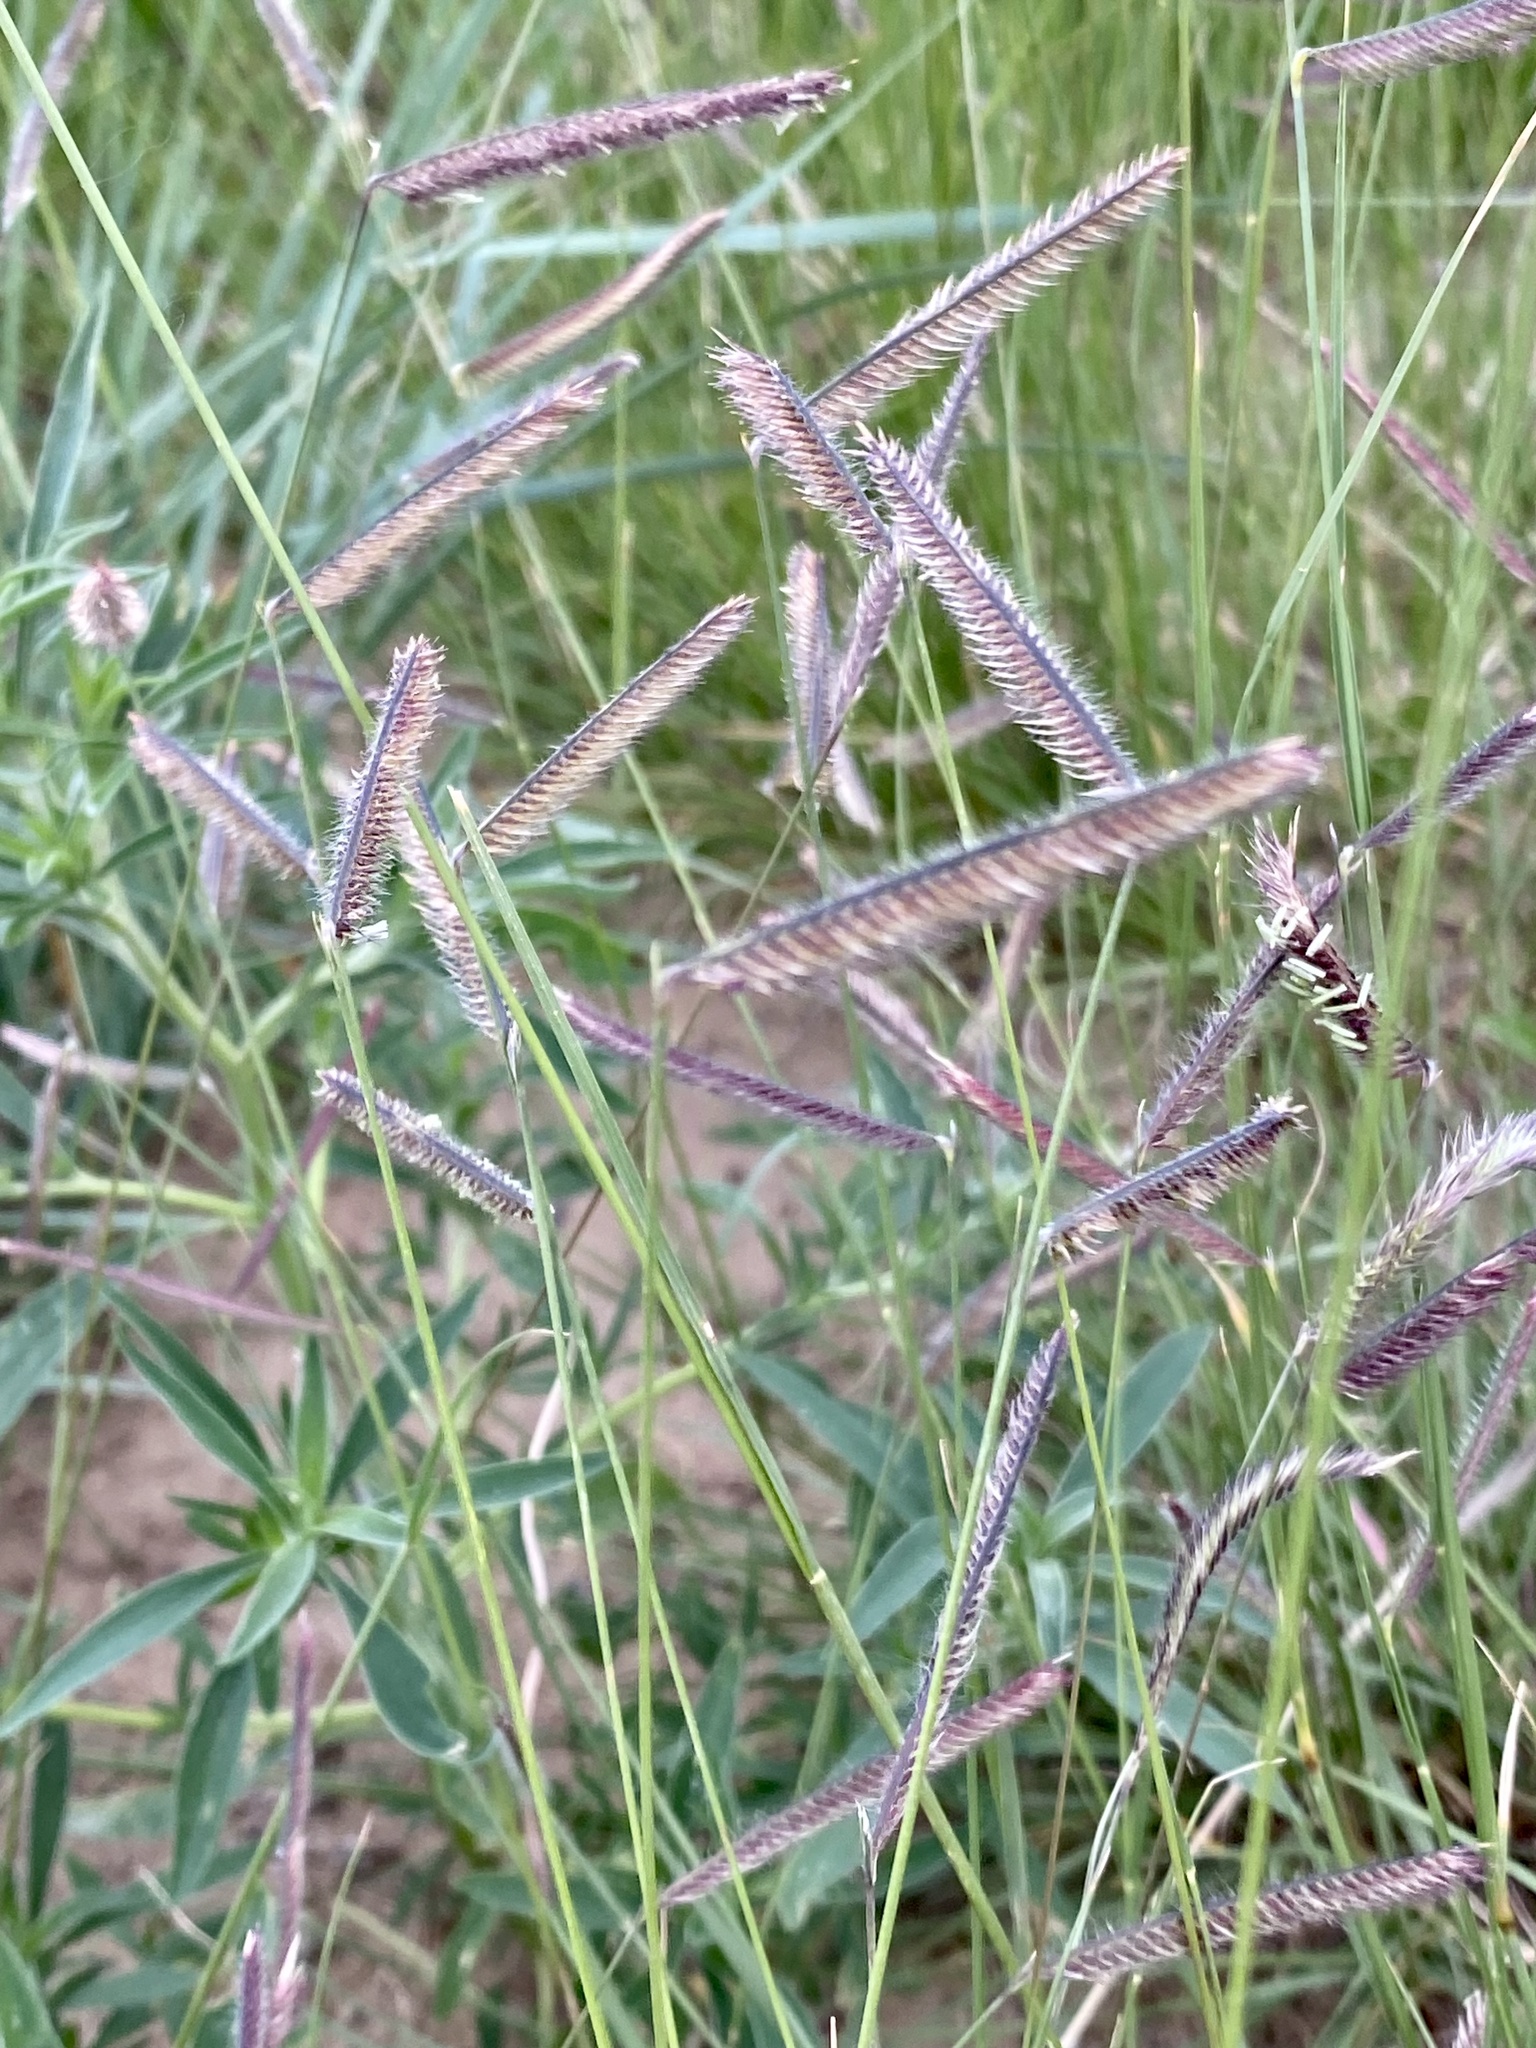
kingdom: Plantae
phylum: Tracheophyta
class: Liliopsida
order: Poales
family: Poaceae
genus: Bouteloua
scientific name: Bouteloua gracilis
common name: Blue grama
